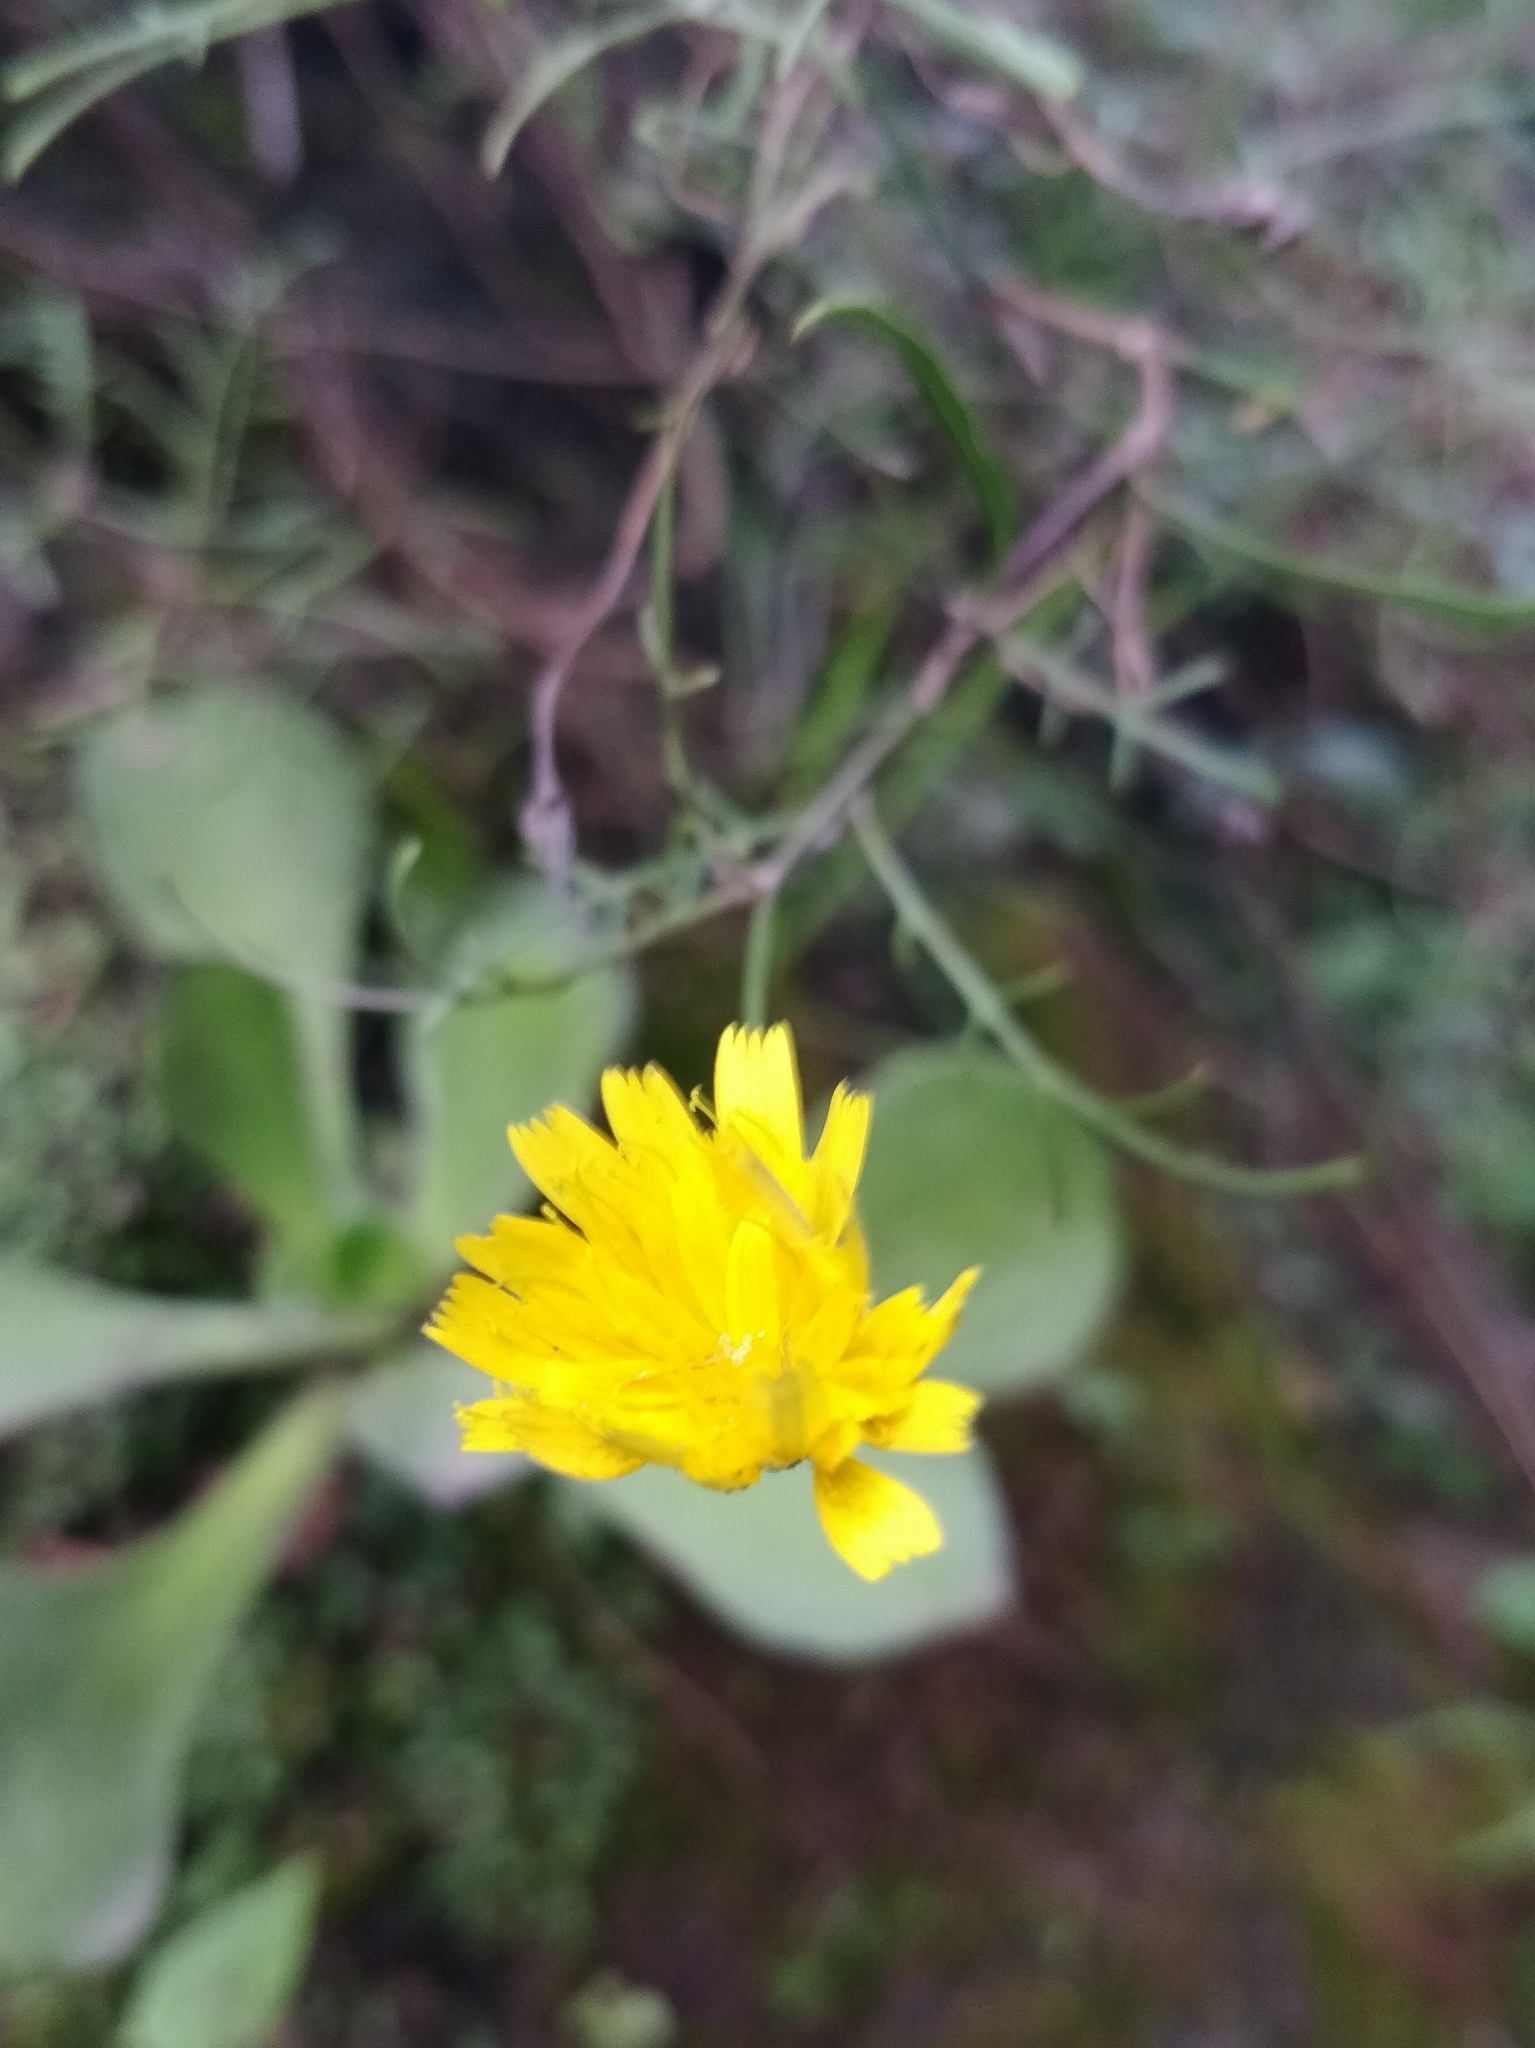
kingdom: Plantae
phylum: Tracheophyta
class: Magnoliopsida
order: Asterales
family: Asteraceae
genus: Tolpis
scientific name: Tolpis succulenta
